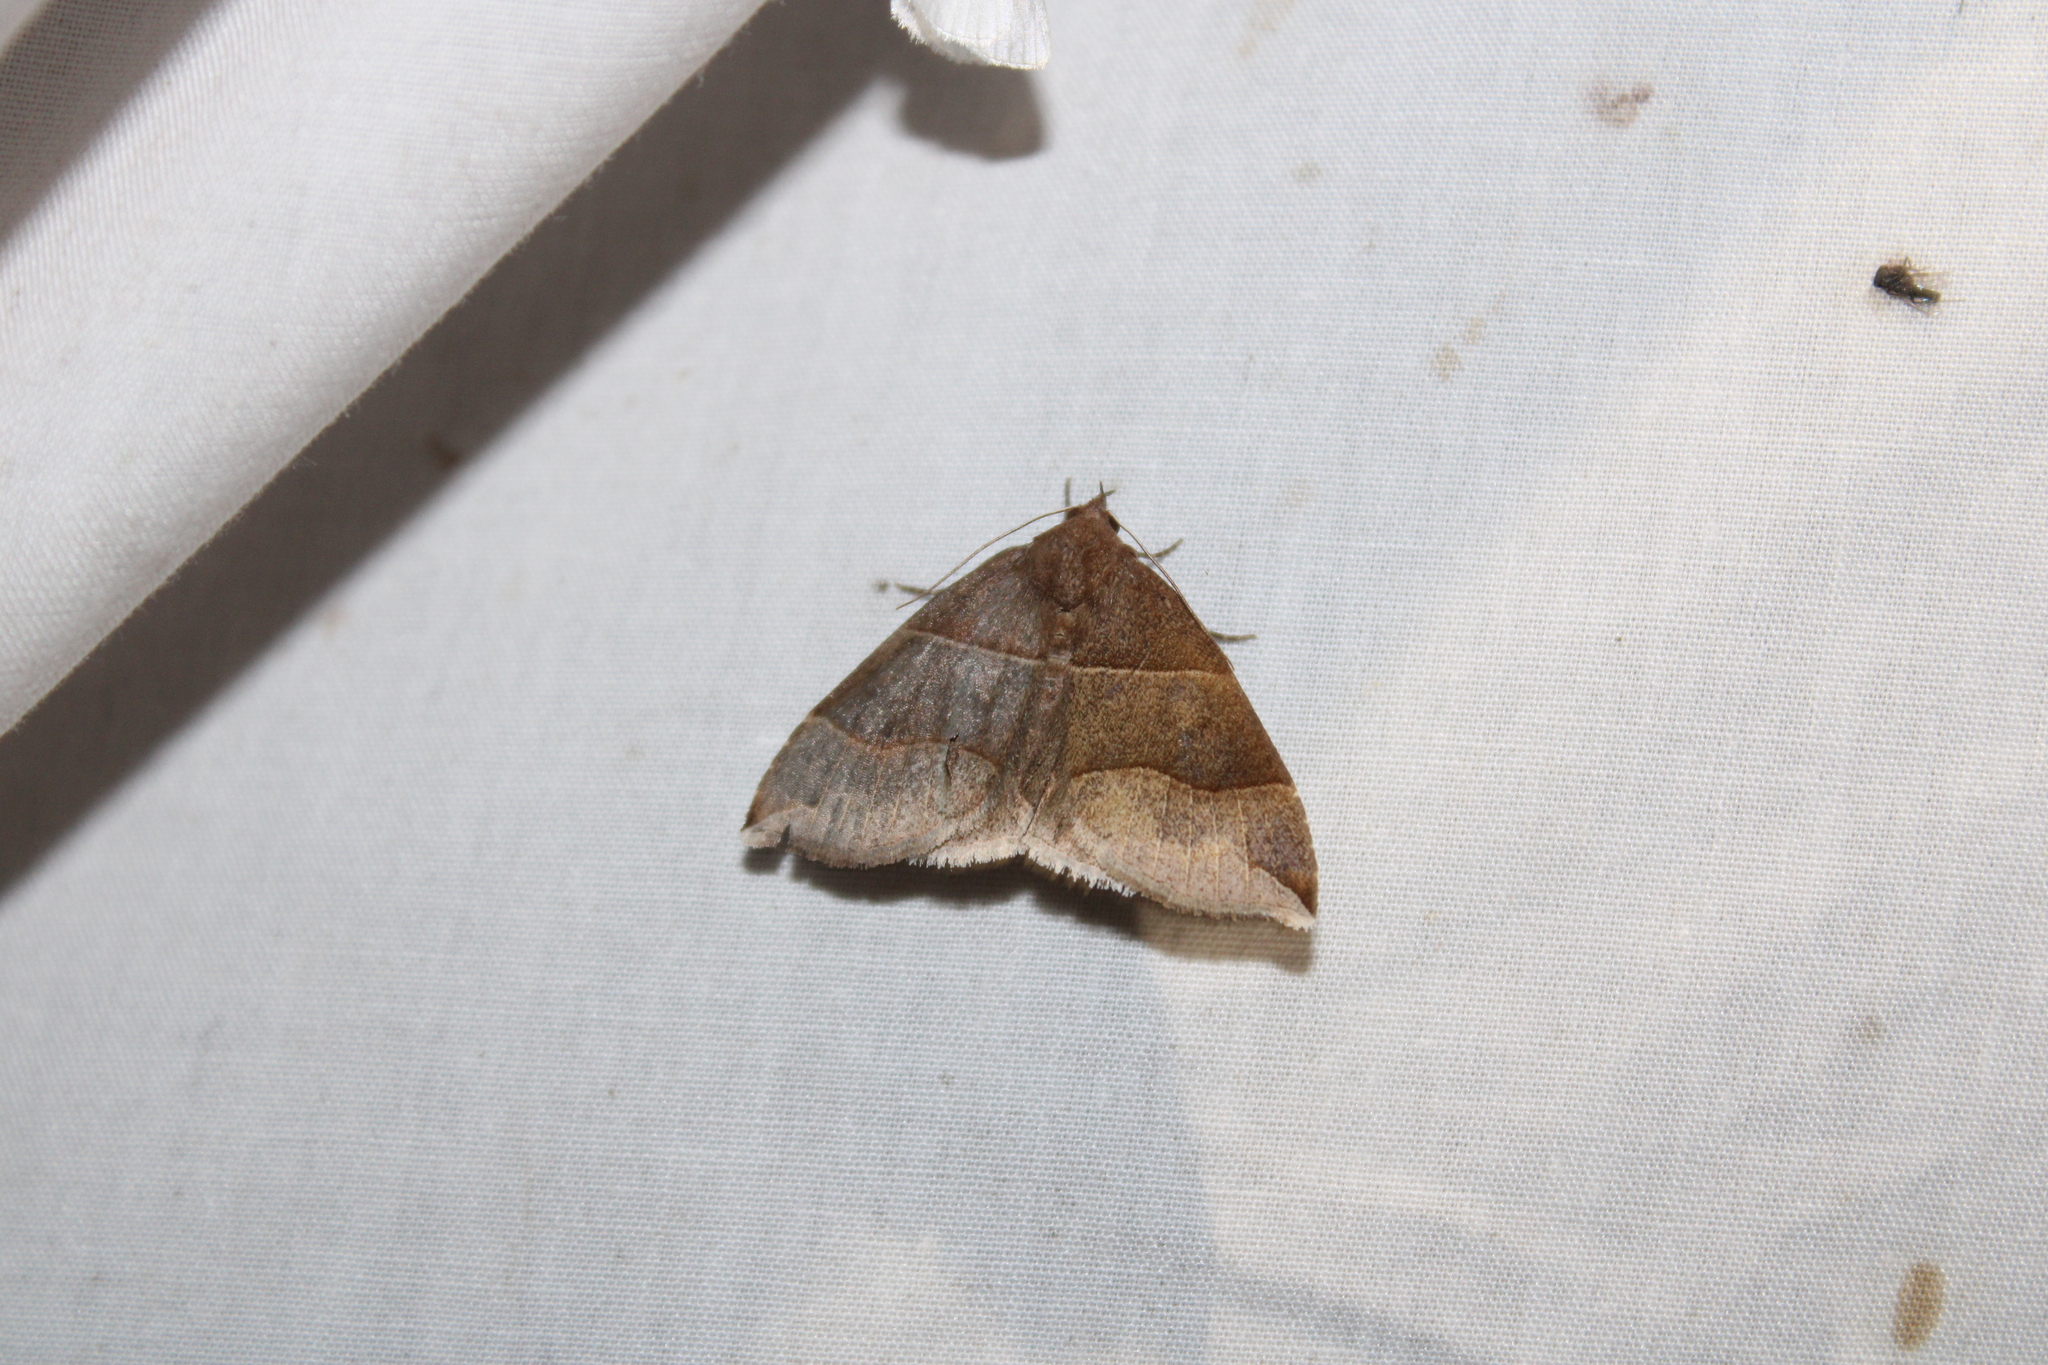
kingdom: Animalia
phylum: Arthropoda
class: Insecta
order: Lepidoptera
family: Erebidae
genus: Parallelia
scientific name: Parallelia bistriaris
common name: Maple looper moth
